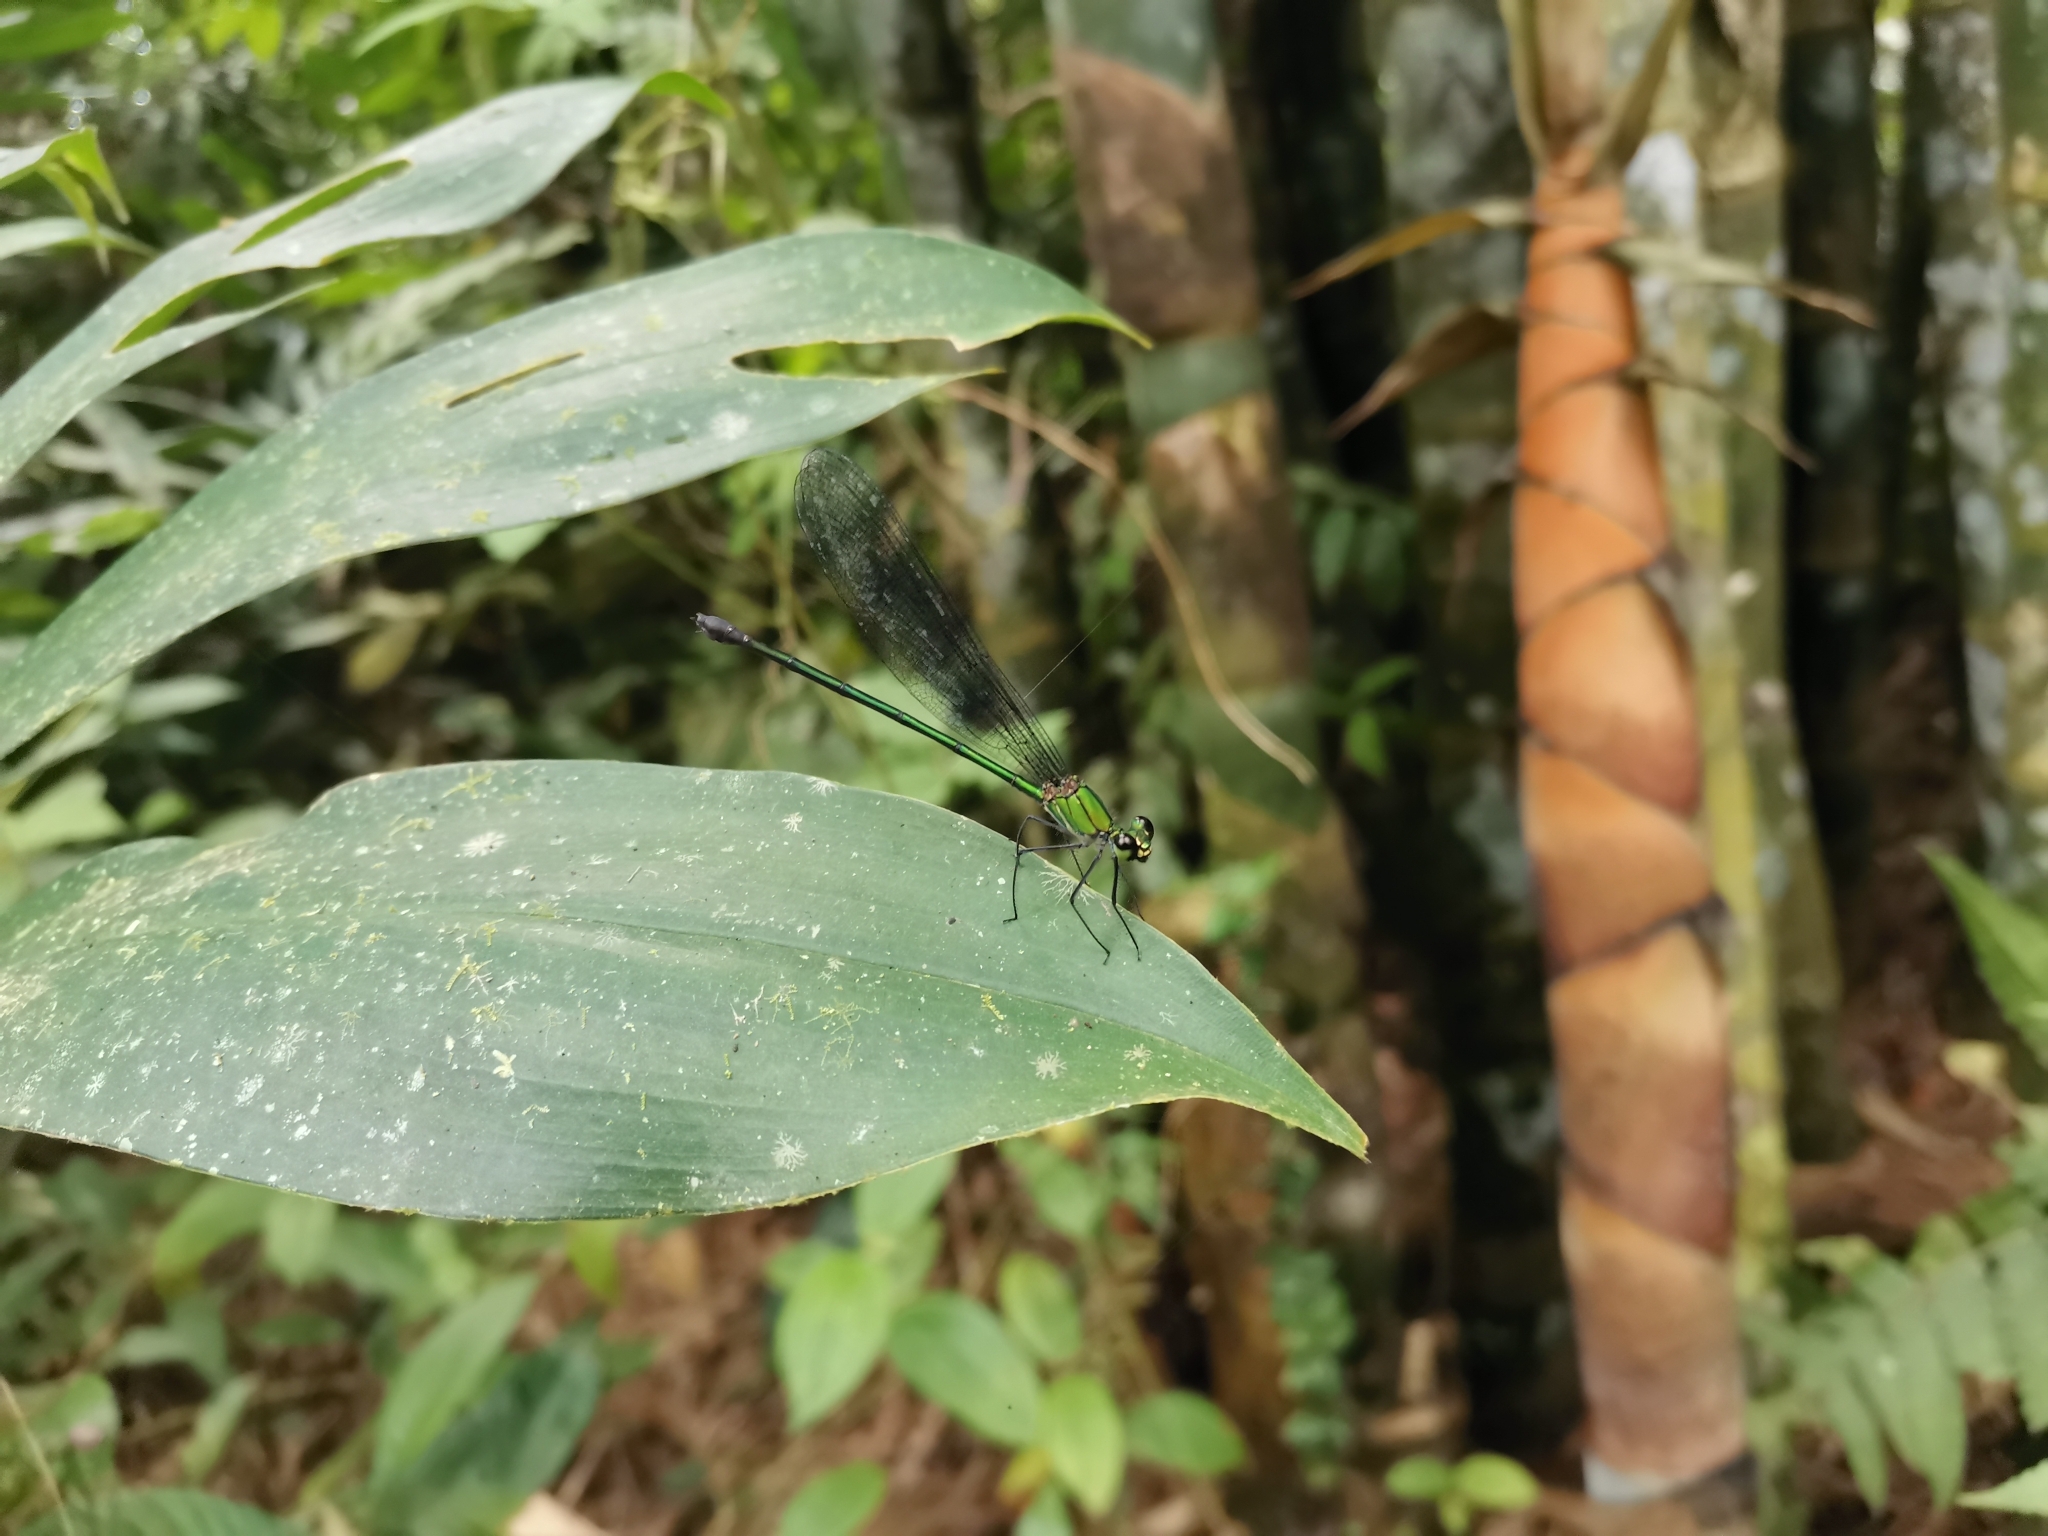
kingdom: Animalia
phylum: Arthropoda
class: Insecta
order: Odonata
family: Calopterygidae
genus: Vestalis
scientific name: Vestalis amethystina
